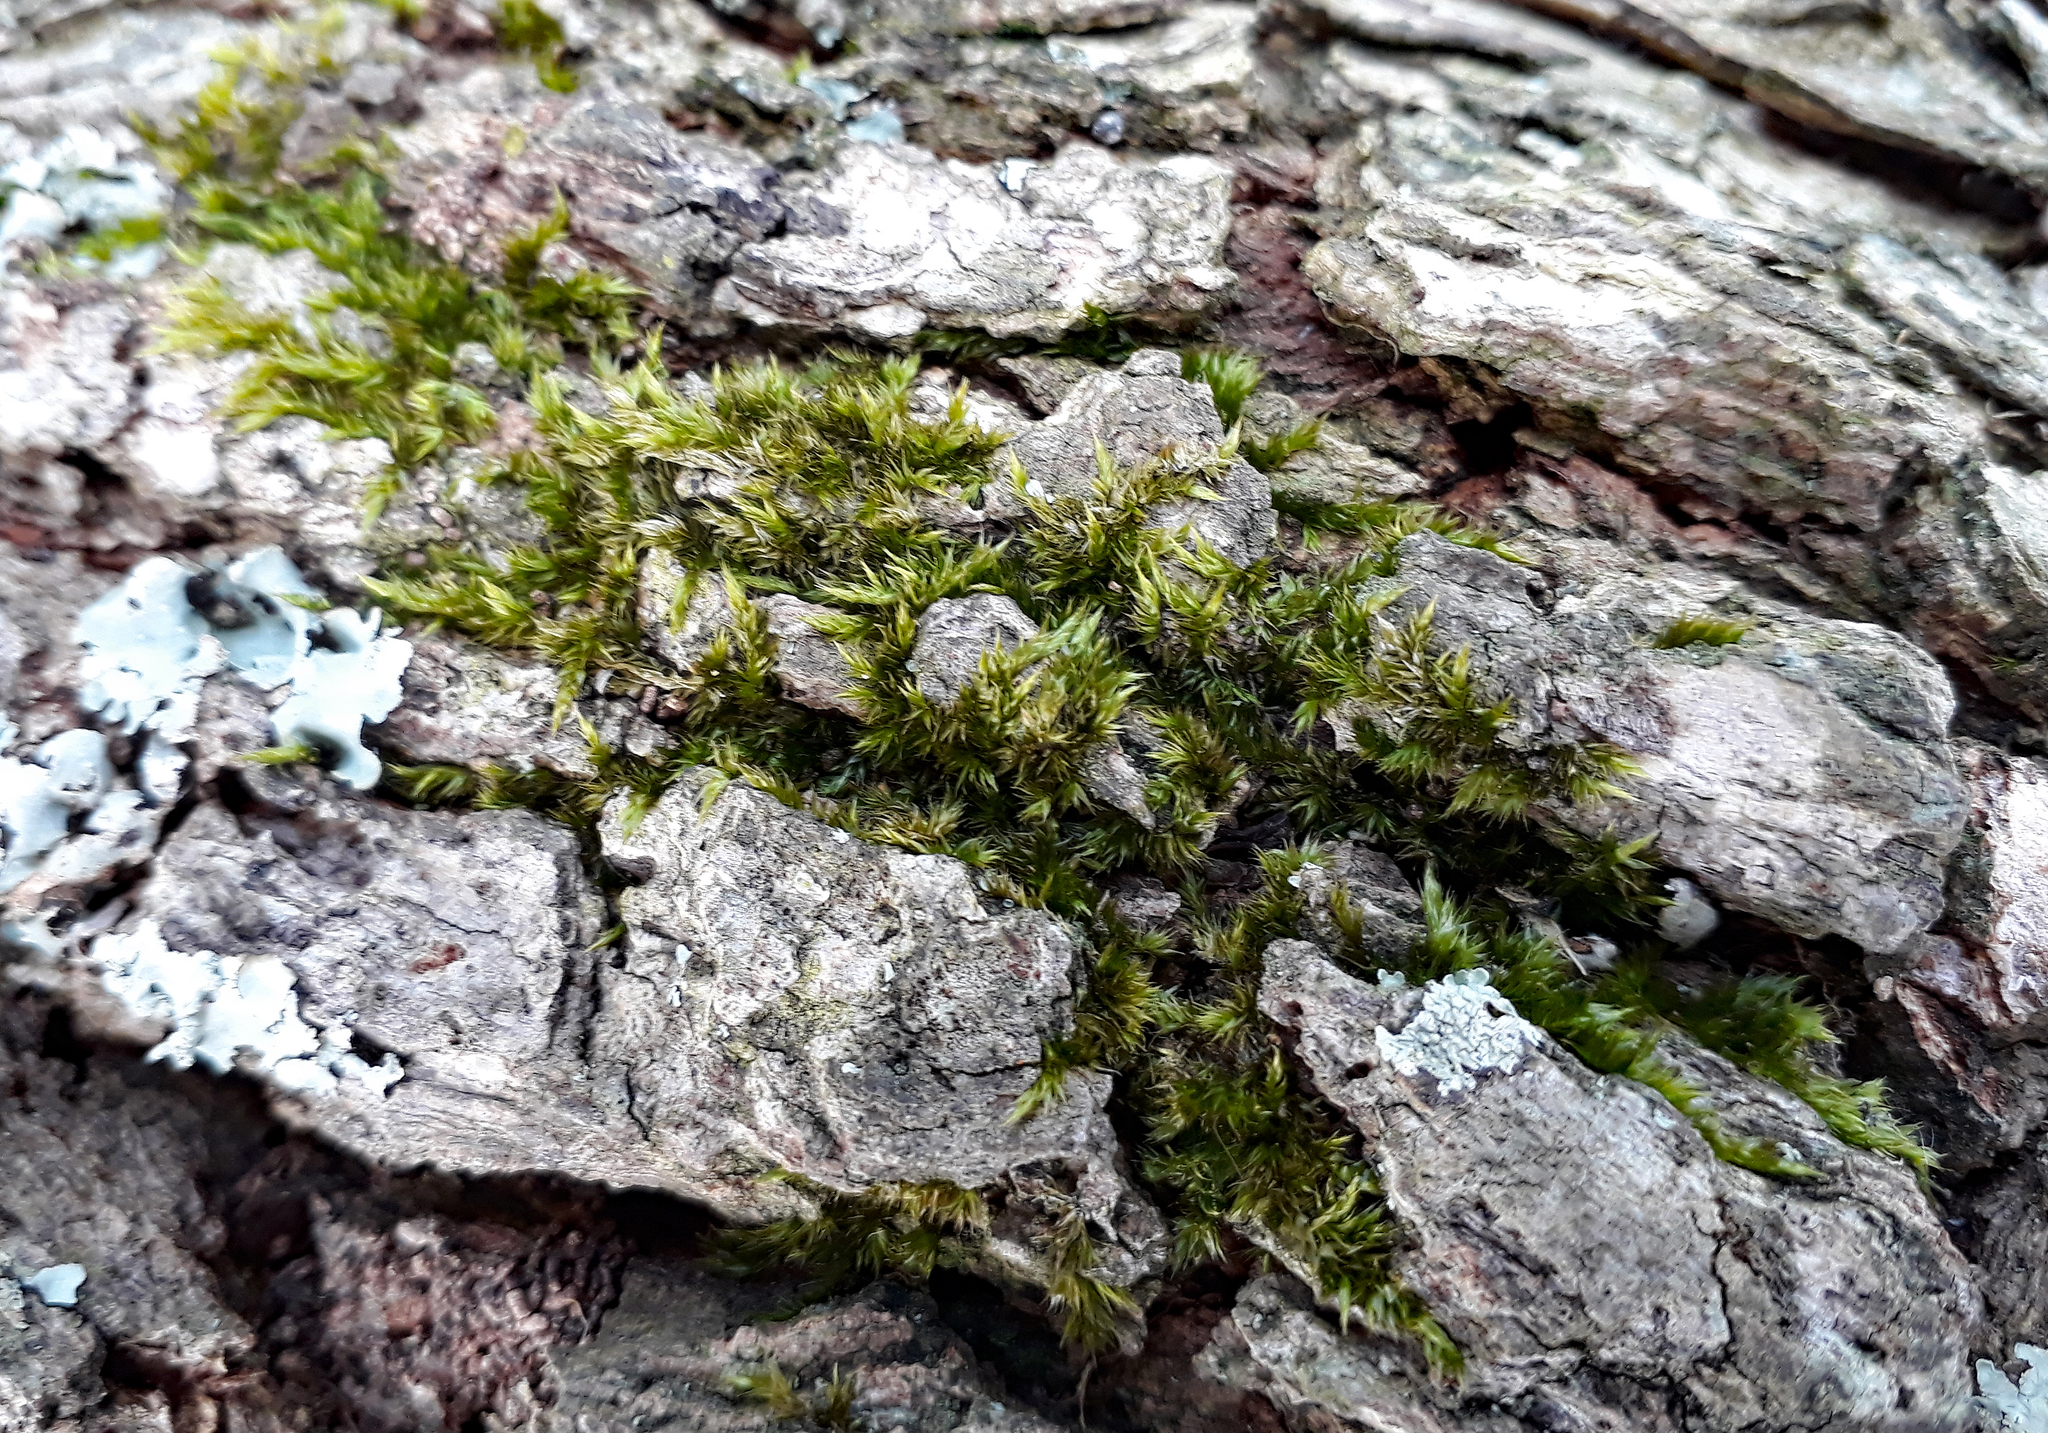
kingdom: Plantae
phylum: Bryophyta
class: Bryopsida
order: Hypnales
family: Sematophyllaceae
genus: Sematophyllum
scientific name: Sematophyllum homomallum
